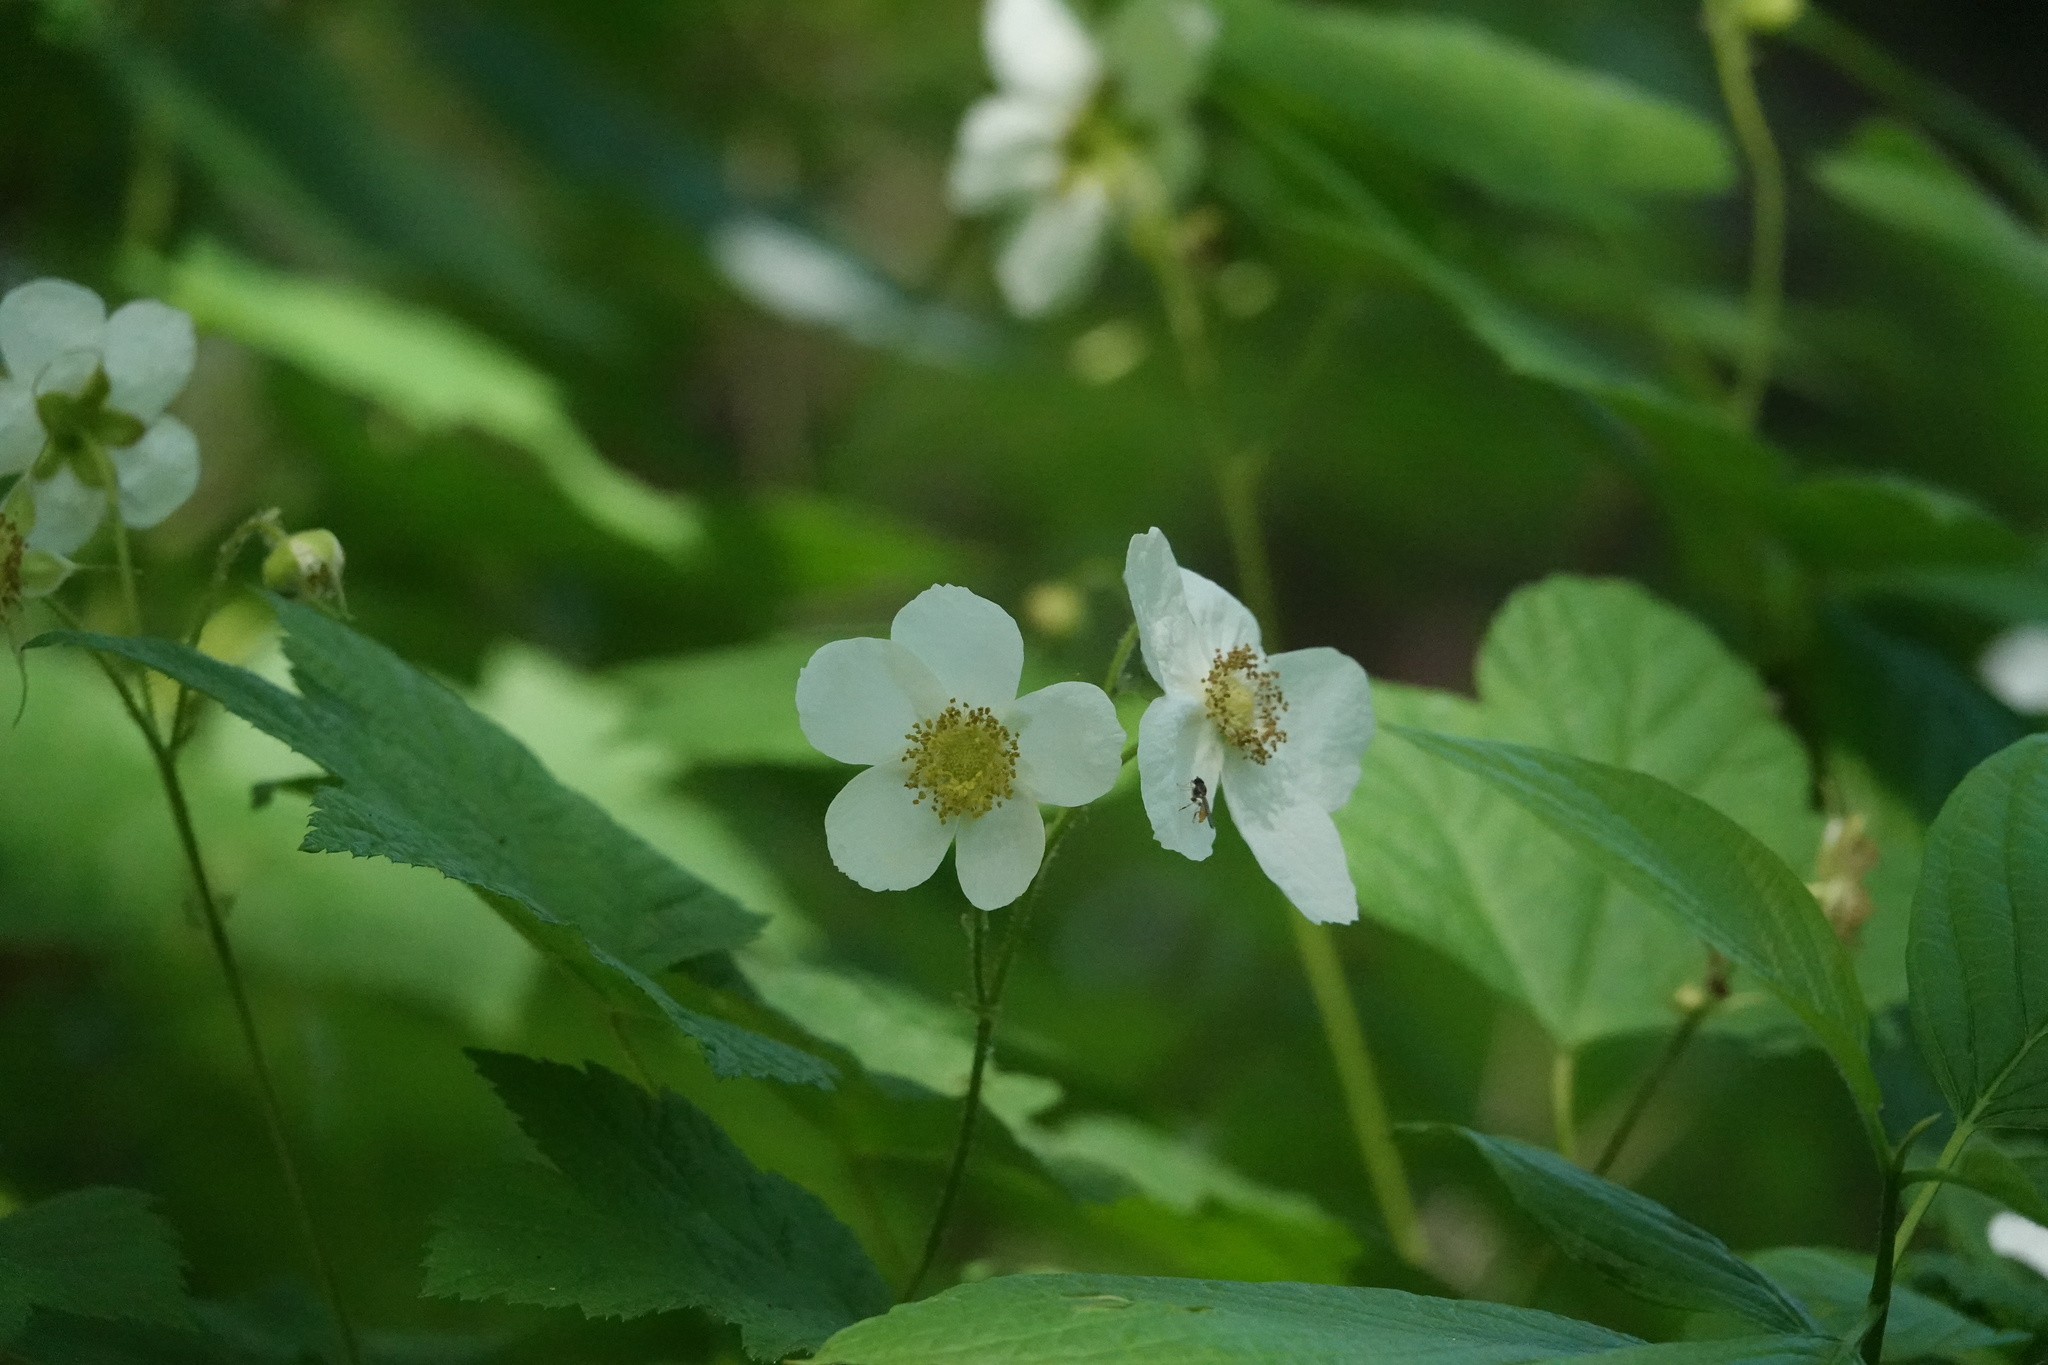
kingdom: Plantae
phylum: Tracheophyta
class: Magnoliopsida
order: Rosales
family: Rosaceae
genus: Rubus
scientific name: Rubus parviflorus
